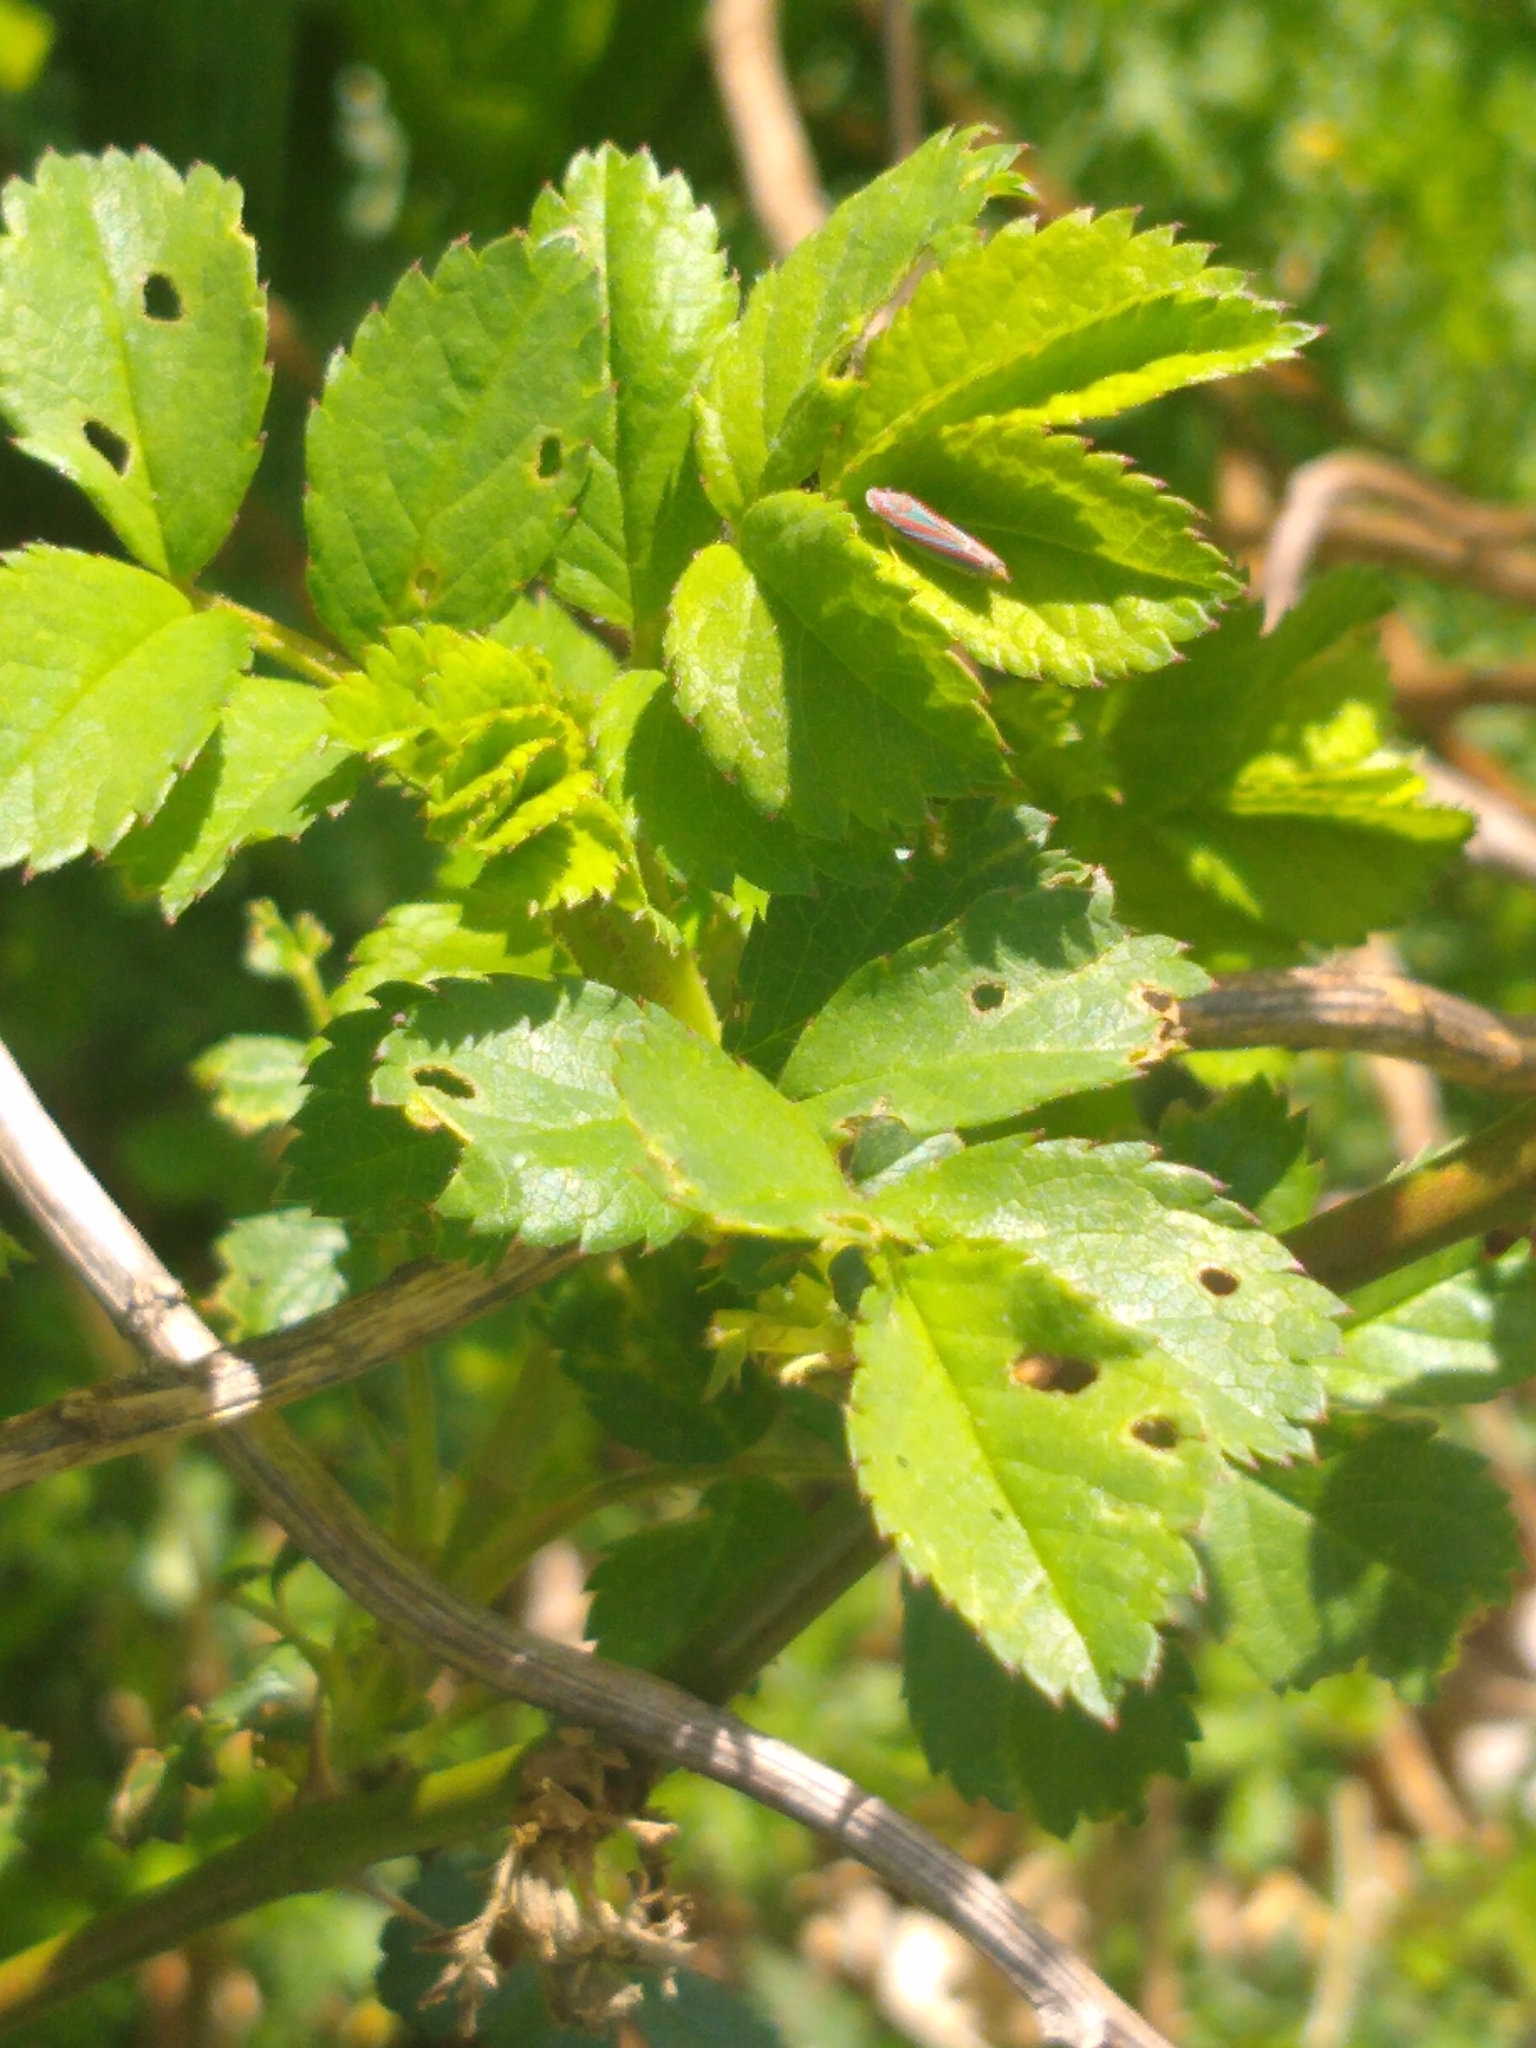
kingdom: Animalia
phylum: Arthropoda
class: Insecta
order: Hemiptera
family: Cicadellidae
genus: Graphocephala
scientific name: Graphocephala versuta
